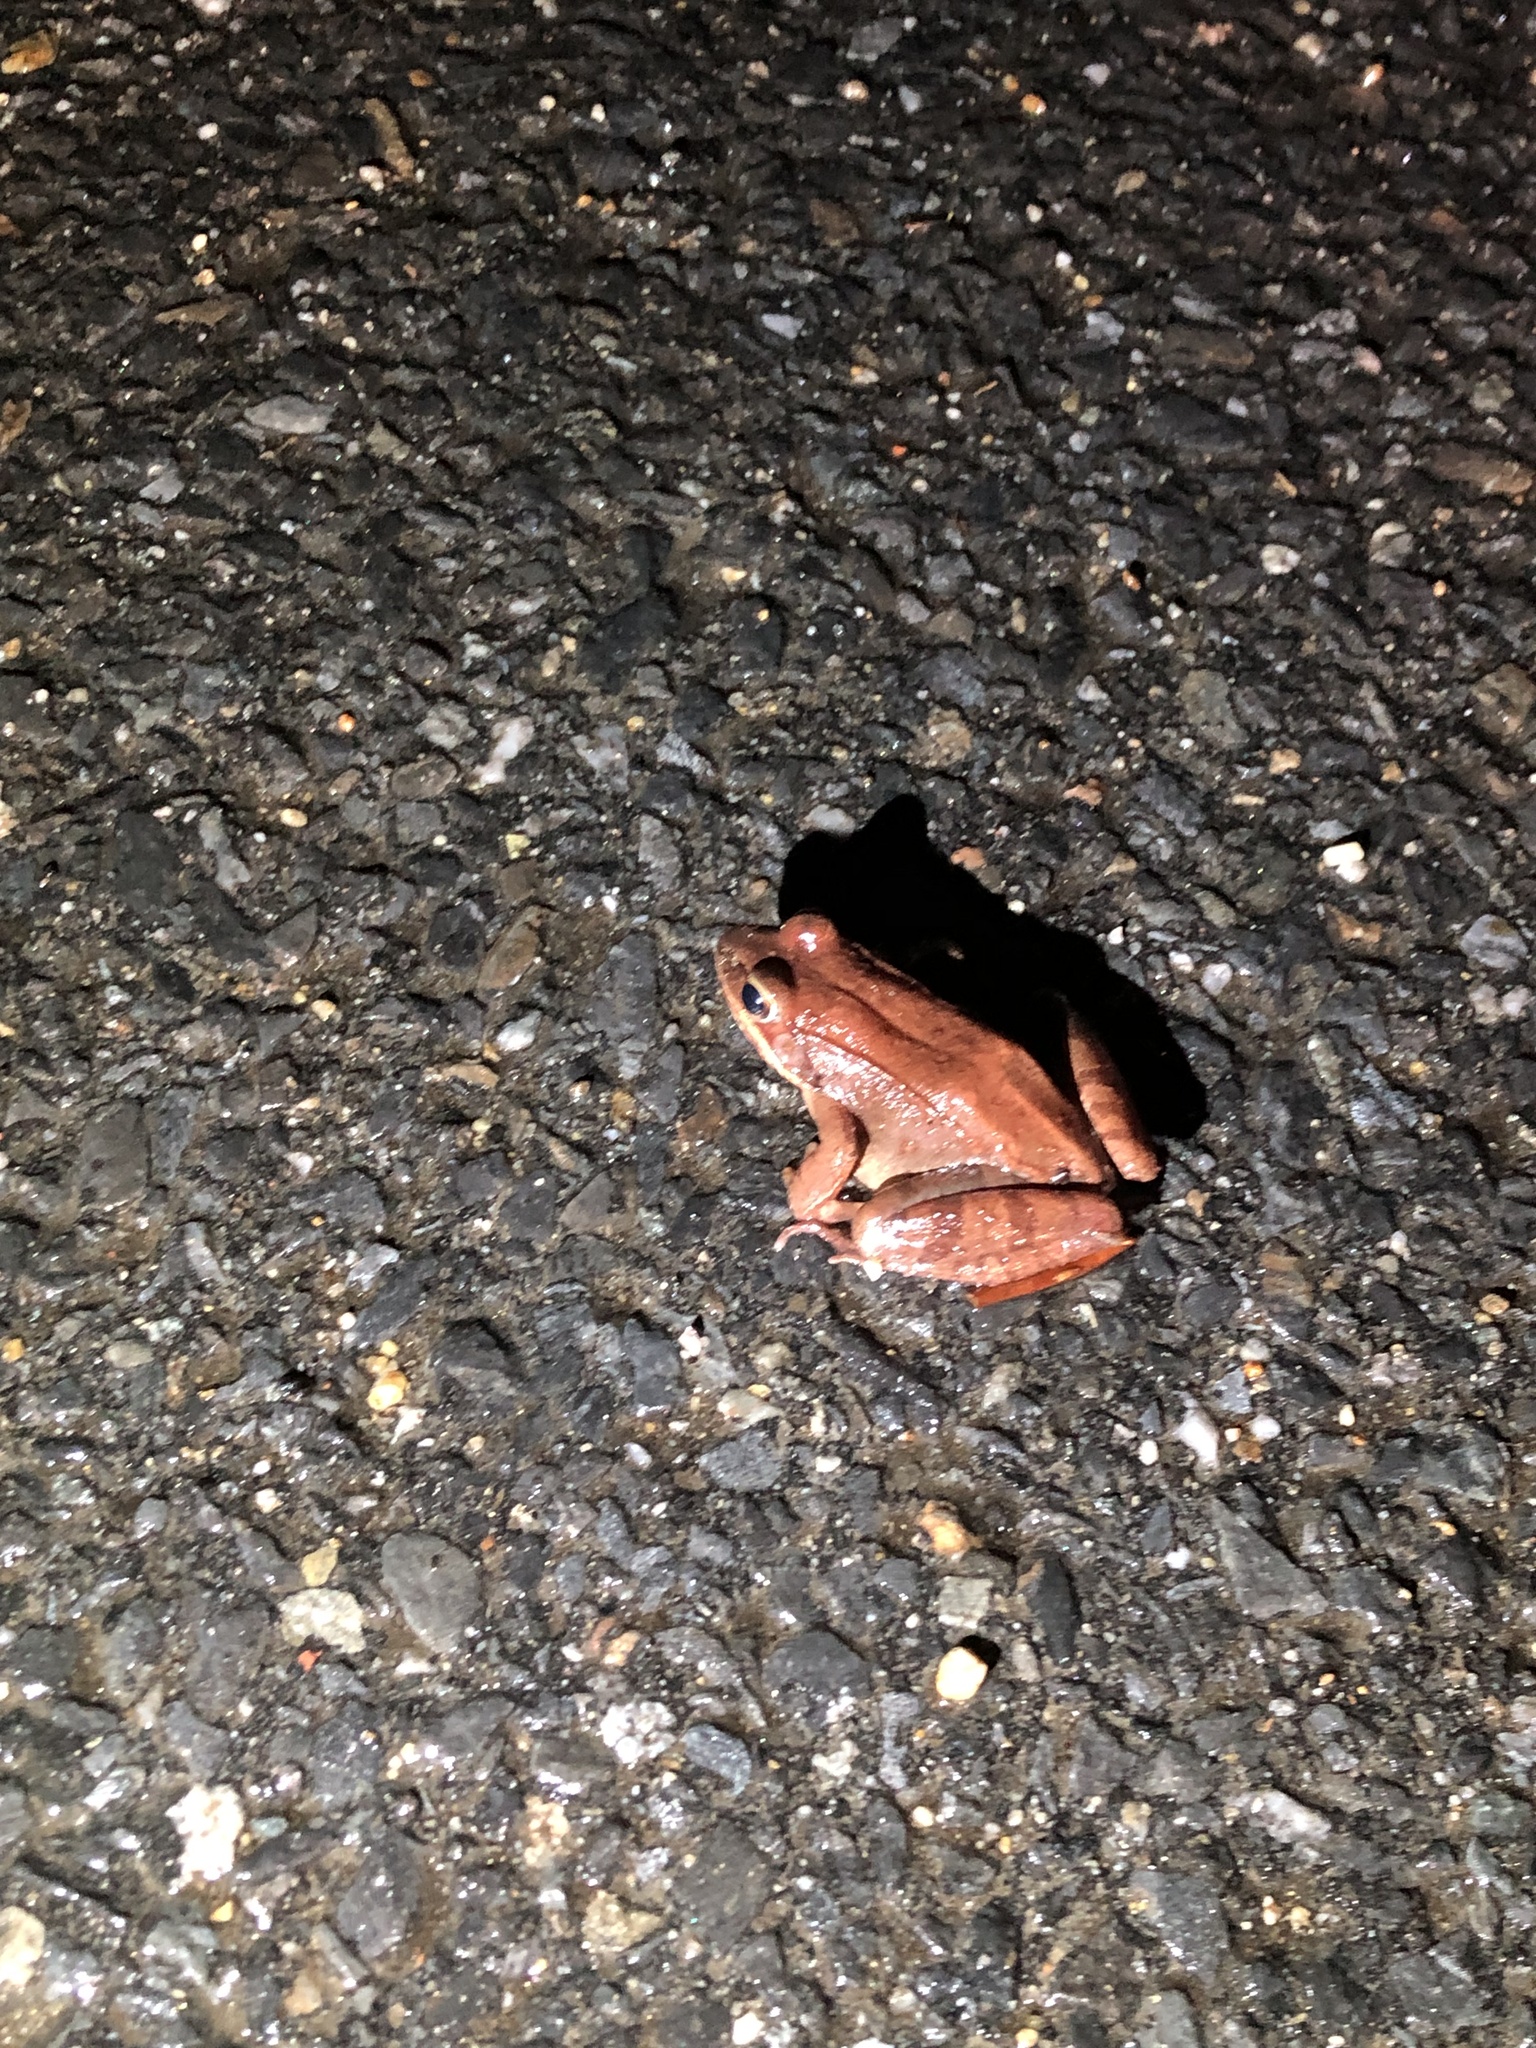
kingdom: Animalia
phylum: Chordata
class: Amphibia
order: Anura
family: Ranidae
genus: Lithobates
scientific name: Lithobates sylvaticus
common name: Wood frog
